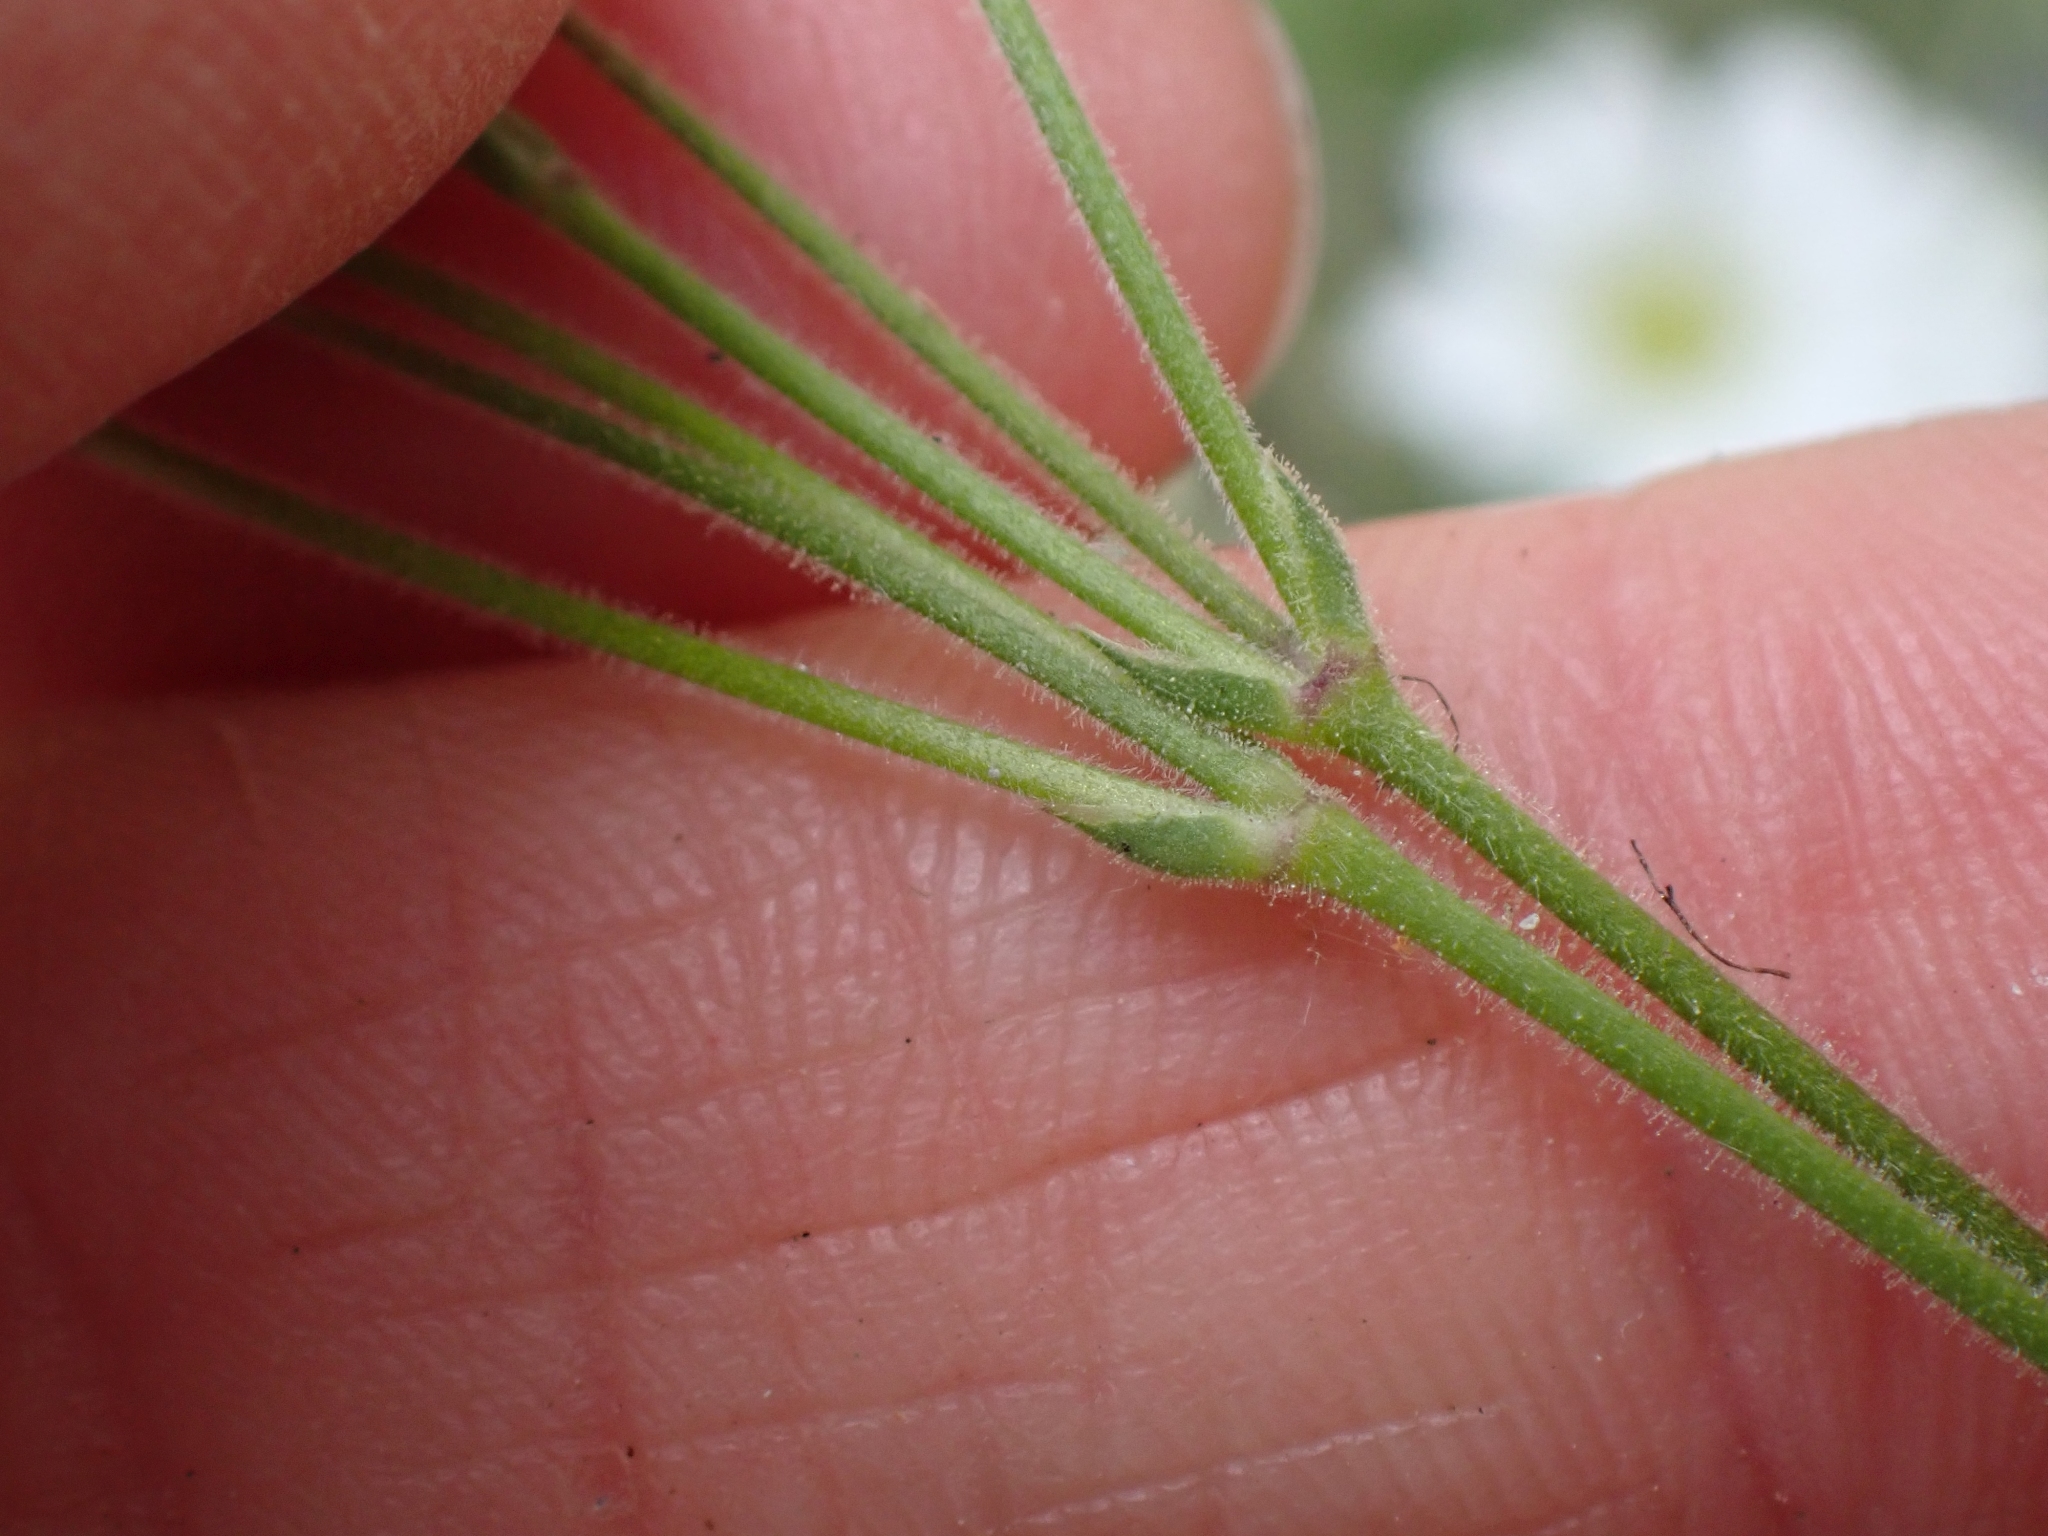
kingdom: Plantae
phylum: Tracheophyta
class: Magnoliopsida
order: Caryophyllales
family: Caryophyllaceae
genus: Cerastium
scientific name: Cerastium arvense
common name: Field mouse-ear
